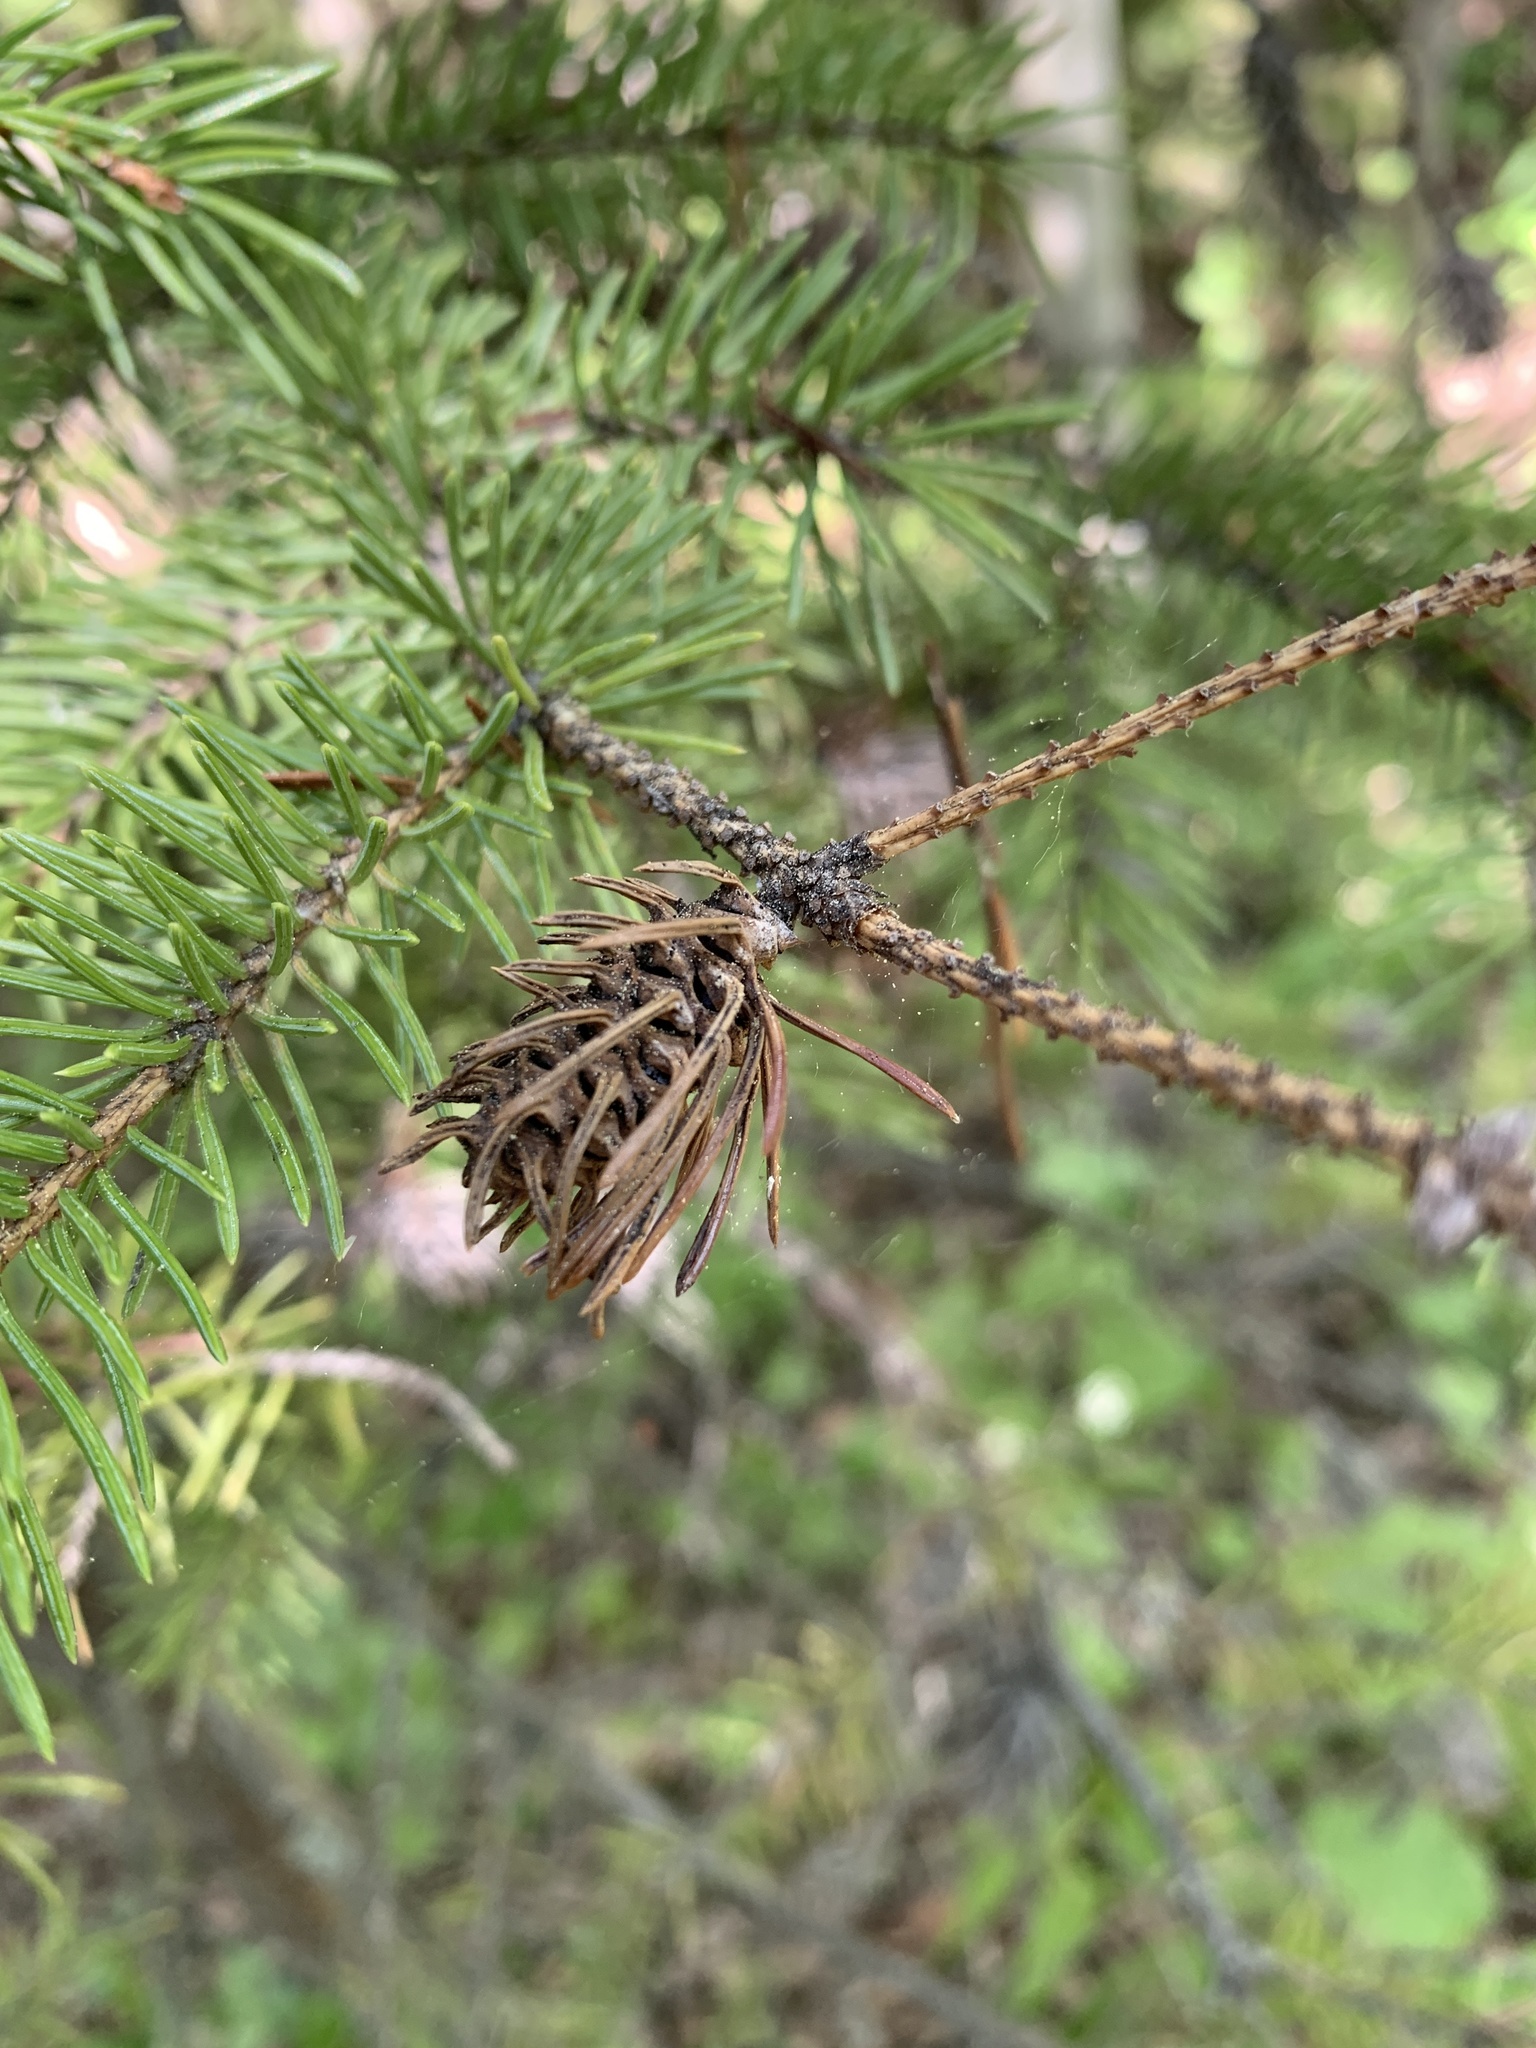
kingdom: Animalia
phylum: Arthropoda
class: Insecta
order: Hemiptera
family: Adelgidae
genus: Adelges
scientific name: Adelges cooleyi
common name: Cooley spruce gall adelgid
